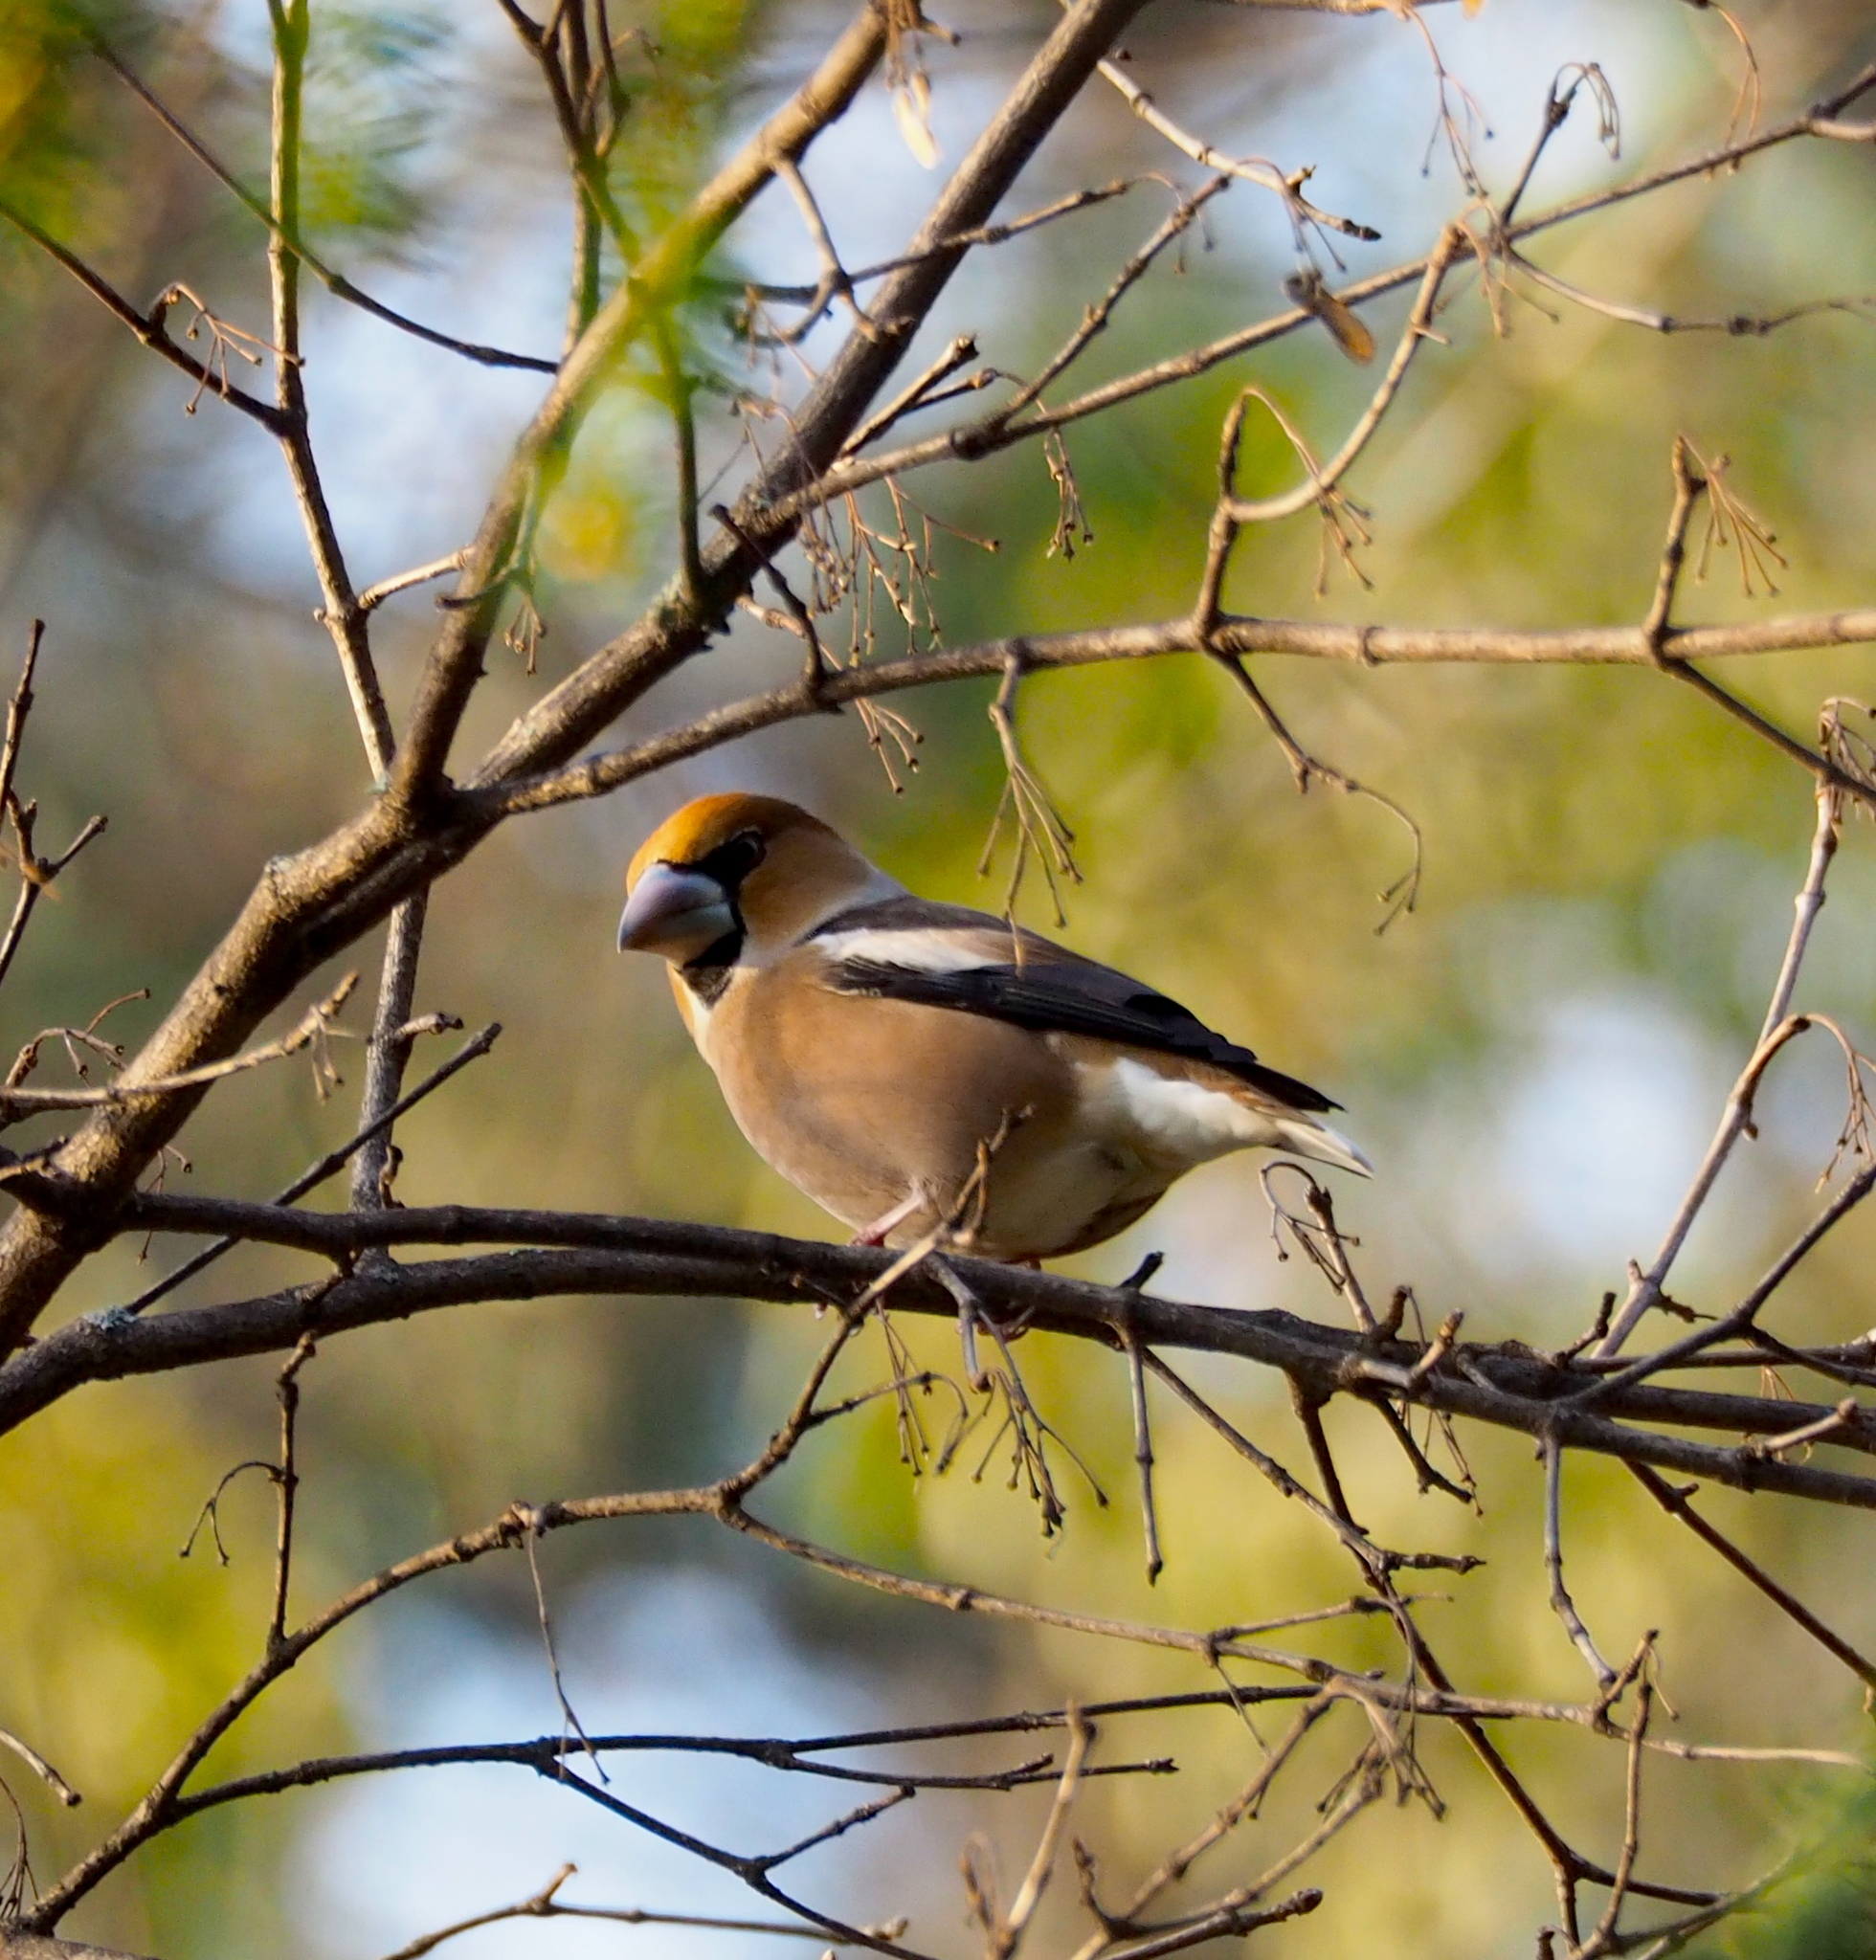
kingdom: Animalia
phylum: Chordata
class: Aves
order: Passeriformes
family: Fringillidae
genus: Coccothraustes
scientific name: Coccothraustes coccothraustes
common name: Hawfinch
